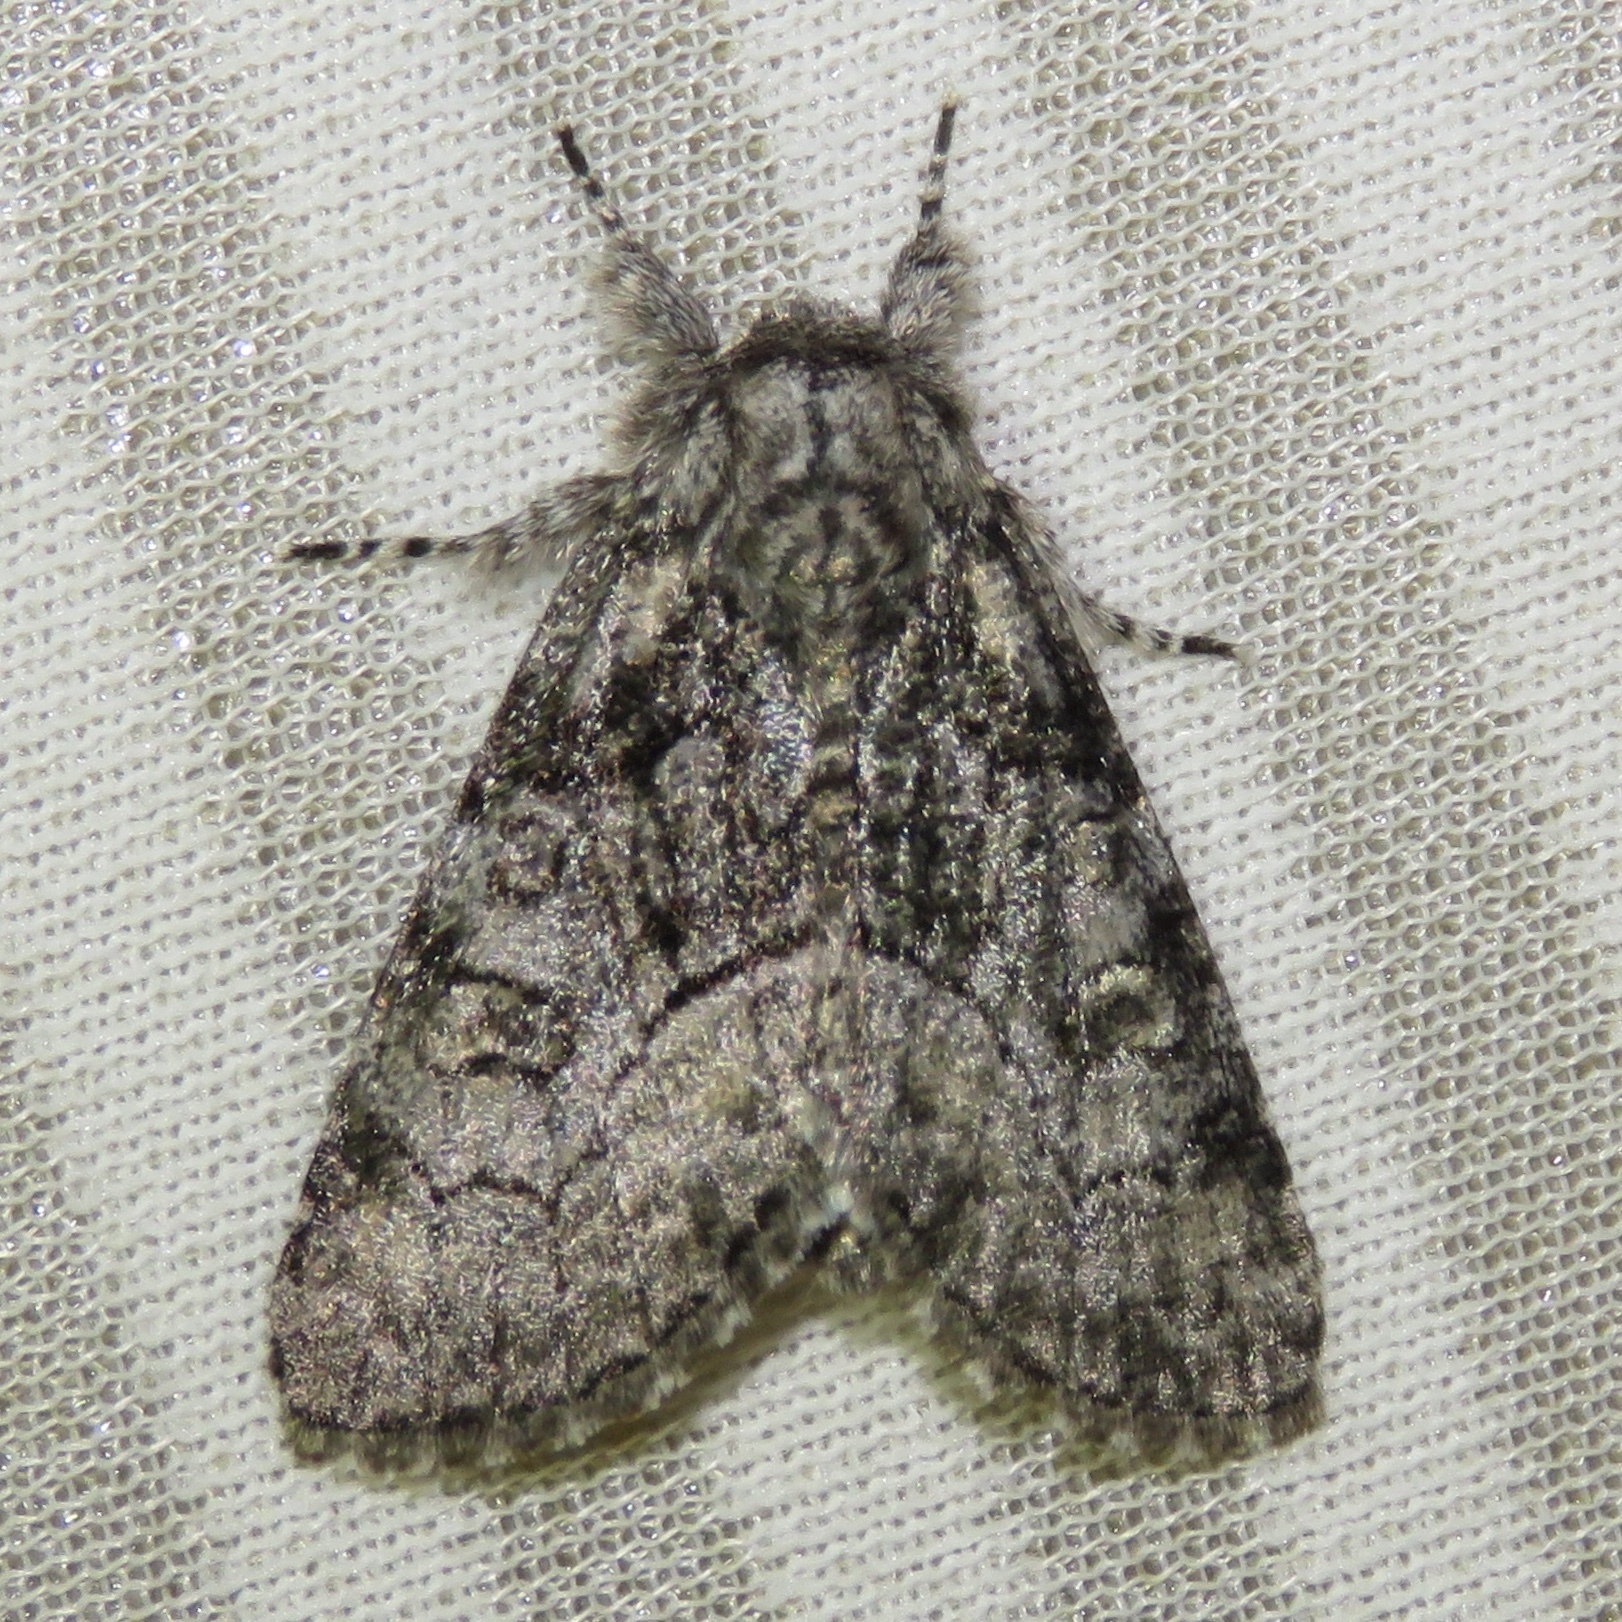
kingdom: Animalia
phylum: Arthropoda
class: Insecta
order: Lepidoptera
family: Noctuidae
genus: Raphia
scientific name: Raphia frater
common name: Brother
